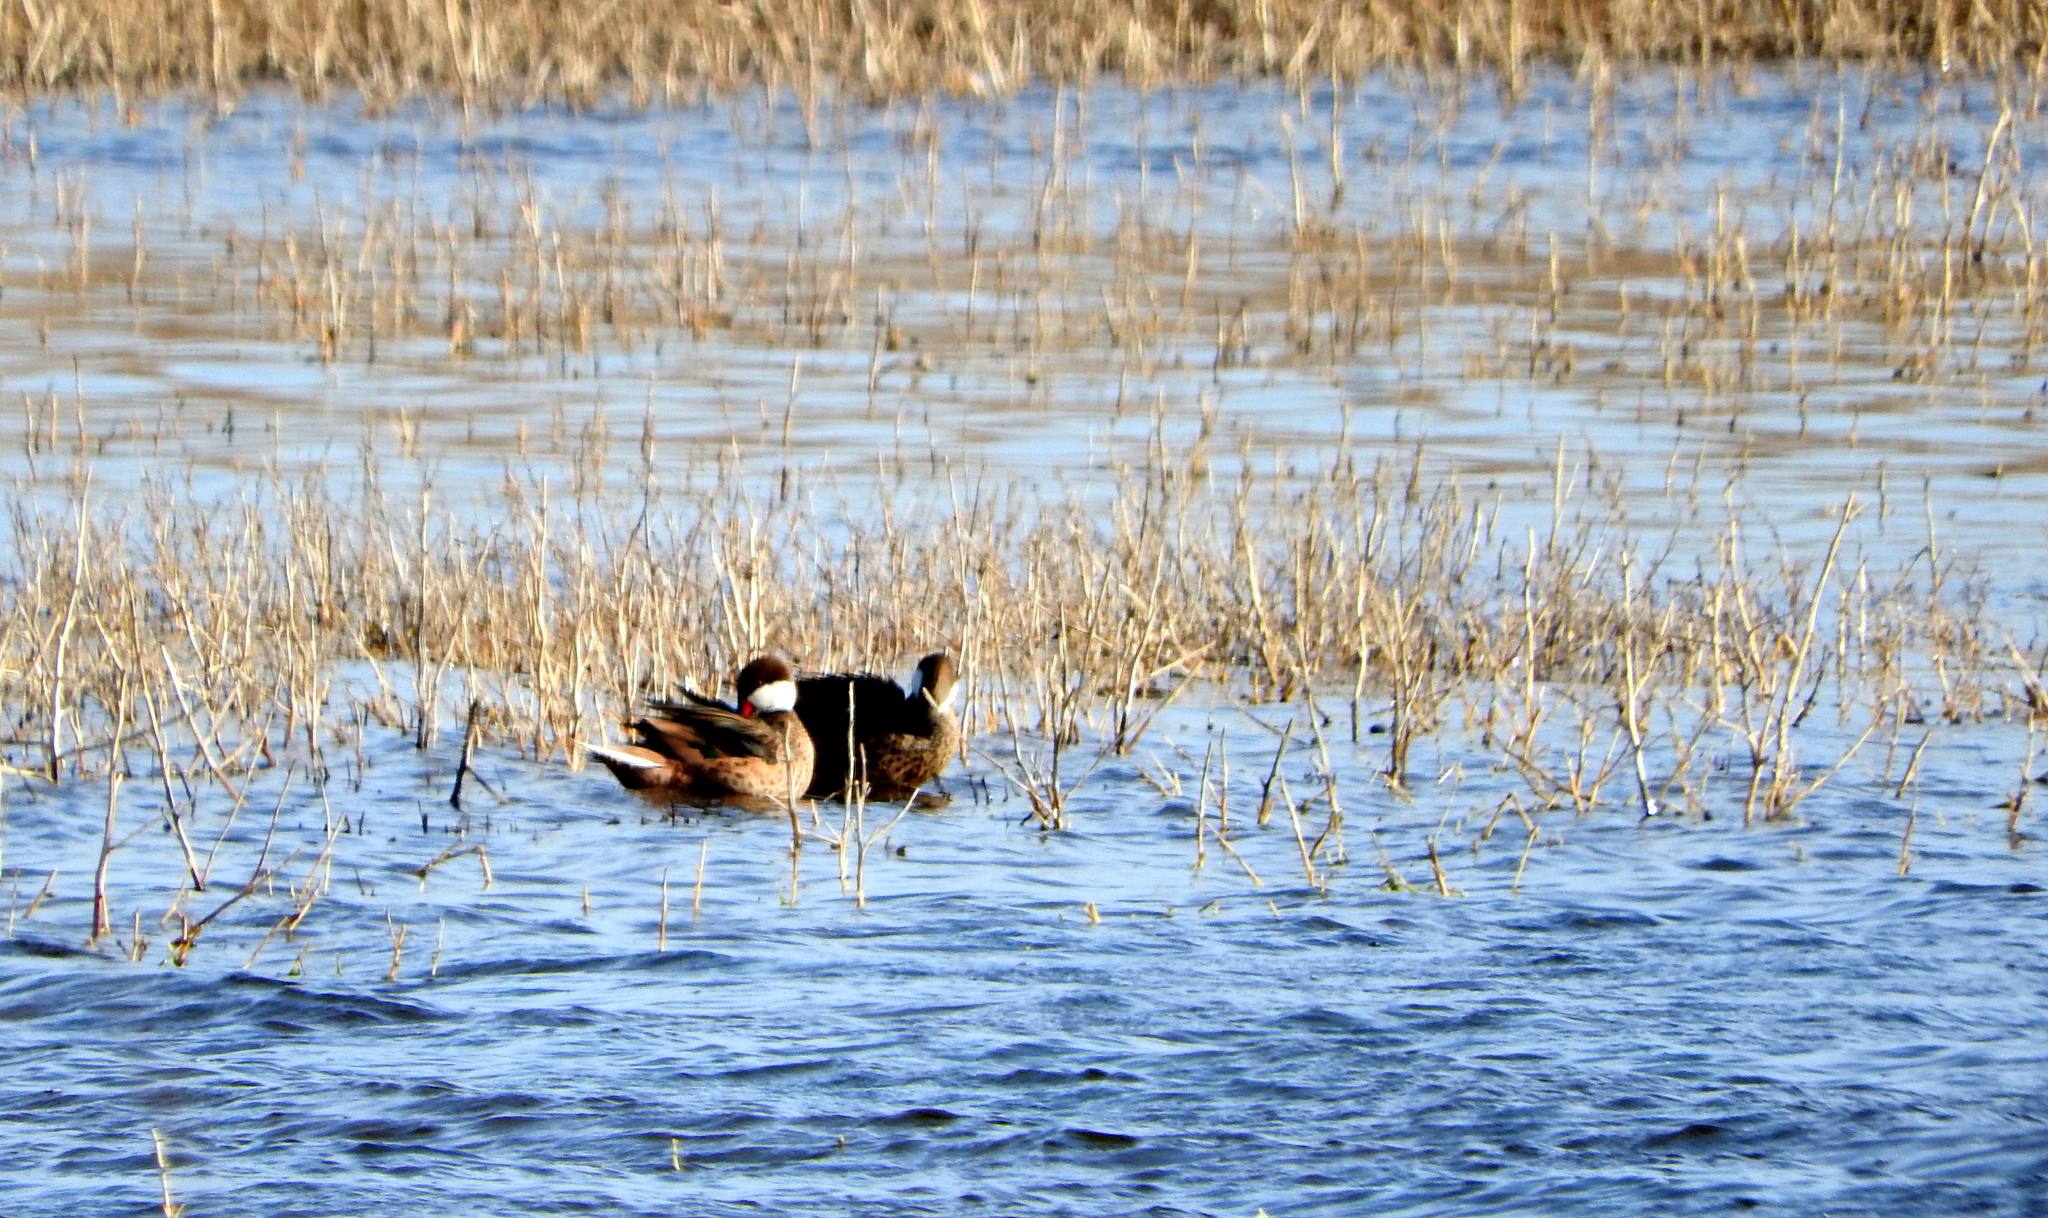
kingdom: Animalia
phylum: Chordata
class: Aves
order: Anseriformes
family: Anatidae
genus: Anas
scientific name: Anas bahamensis
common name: White-cheeked pintail
